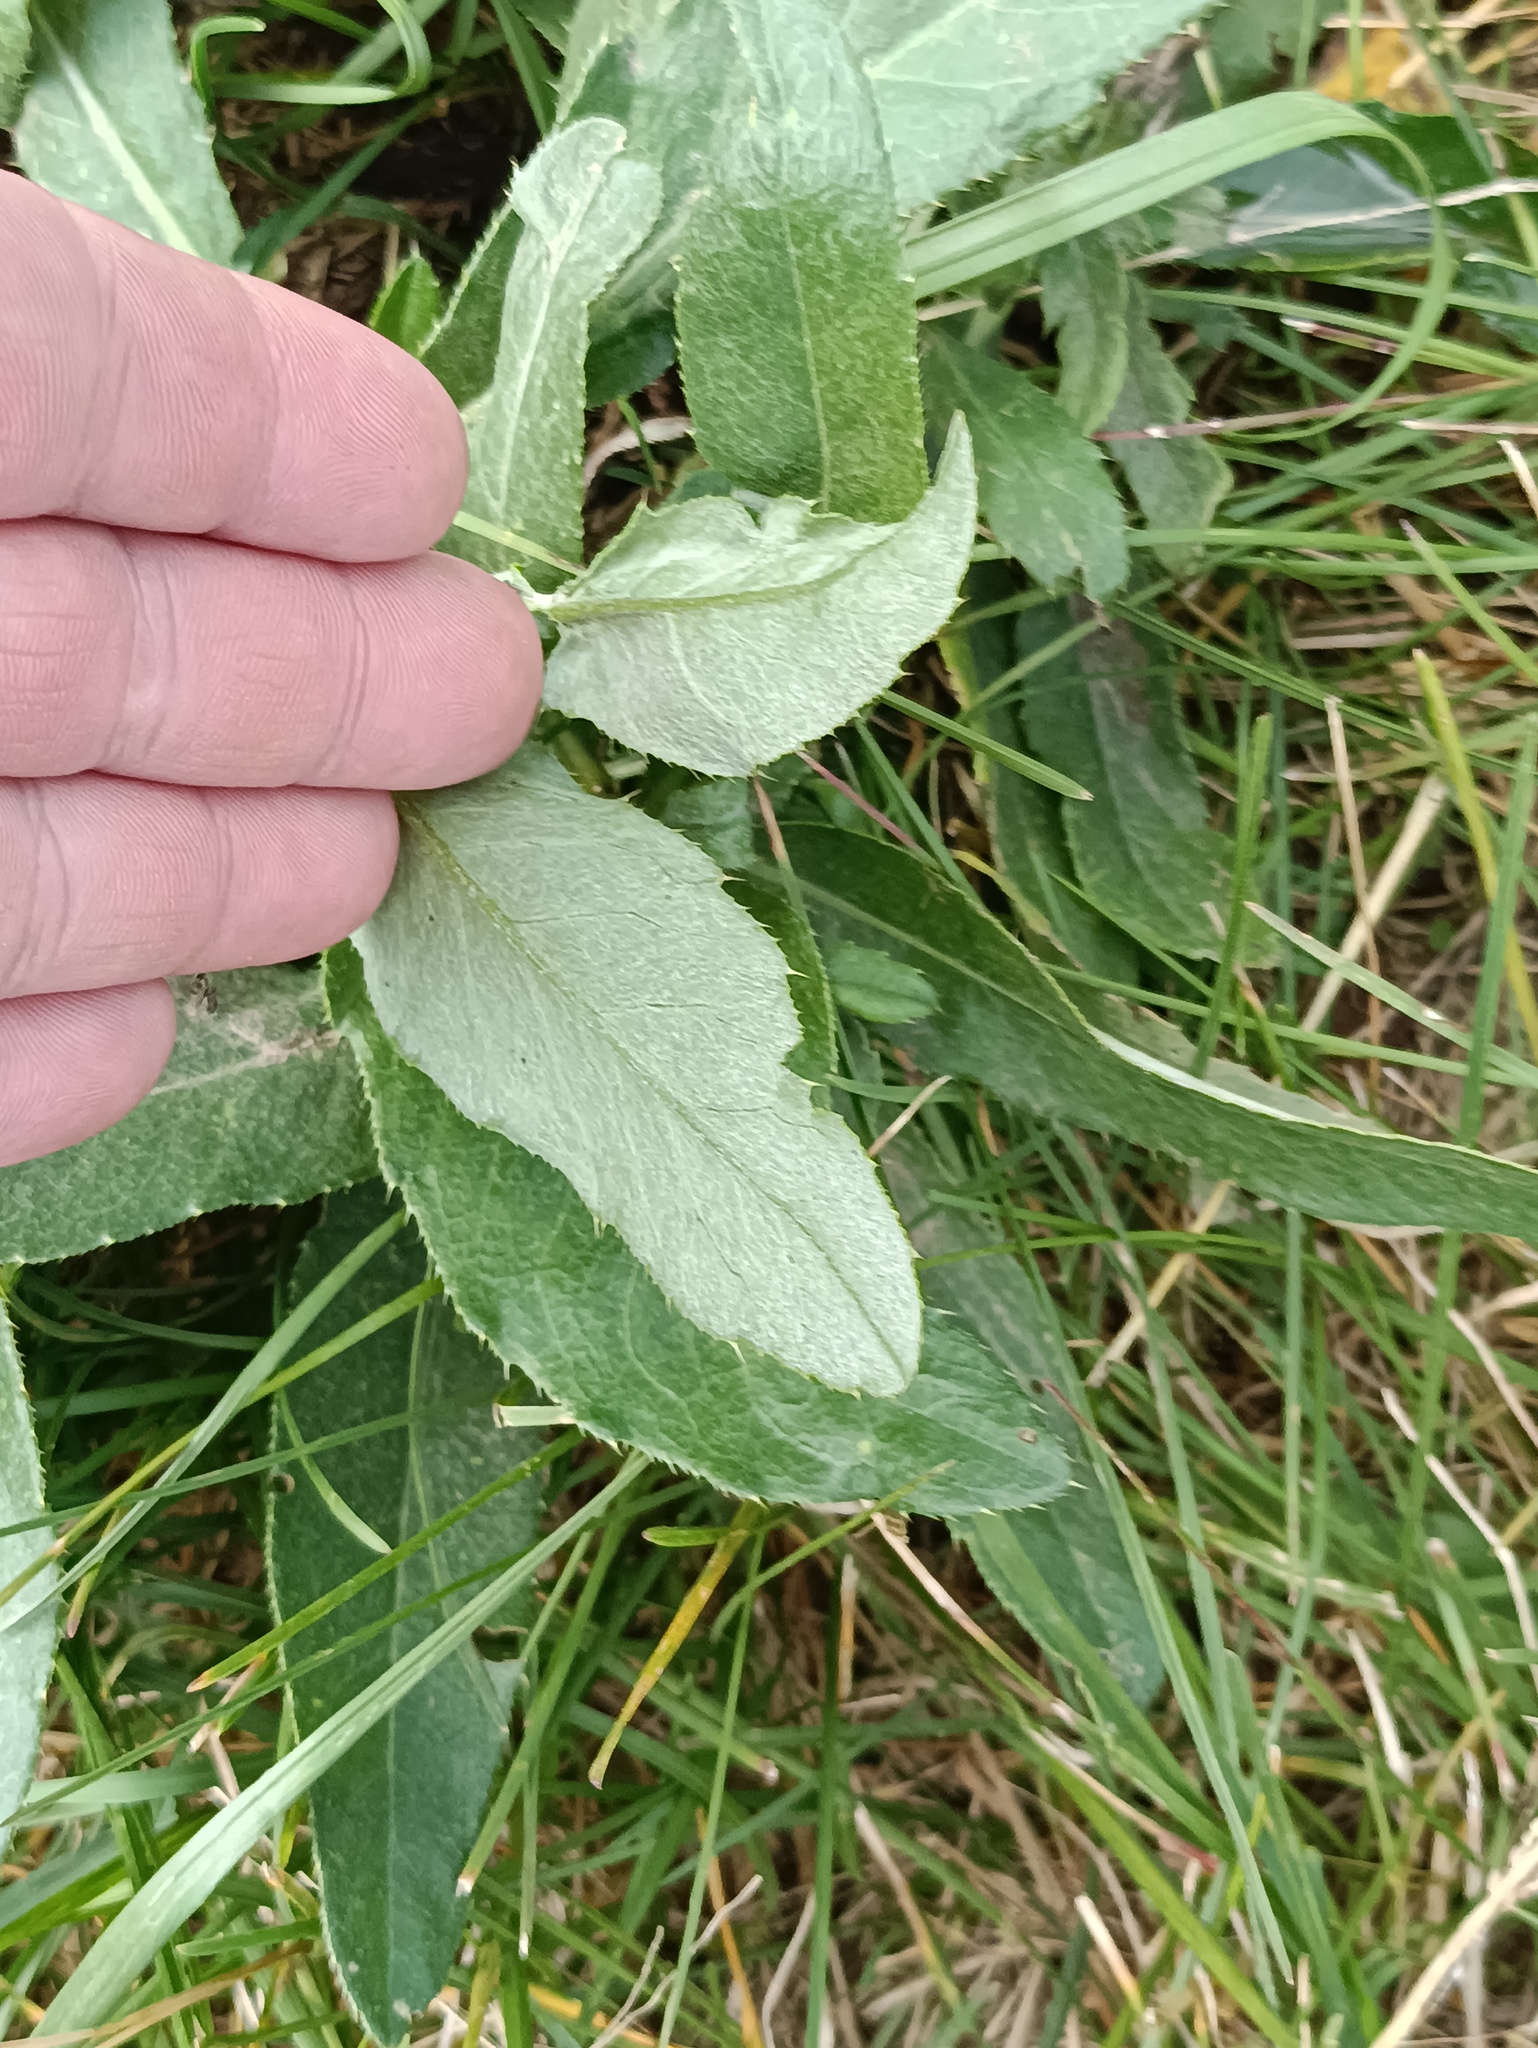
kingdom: Plantae
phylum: Tracheophyta
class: Magnoliopsida
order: Asterales
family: Asteraceae
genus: Cirsium
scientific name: Cirsium arvense
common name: Creeping thistle
